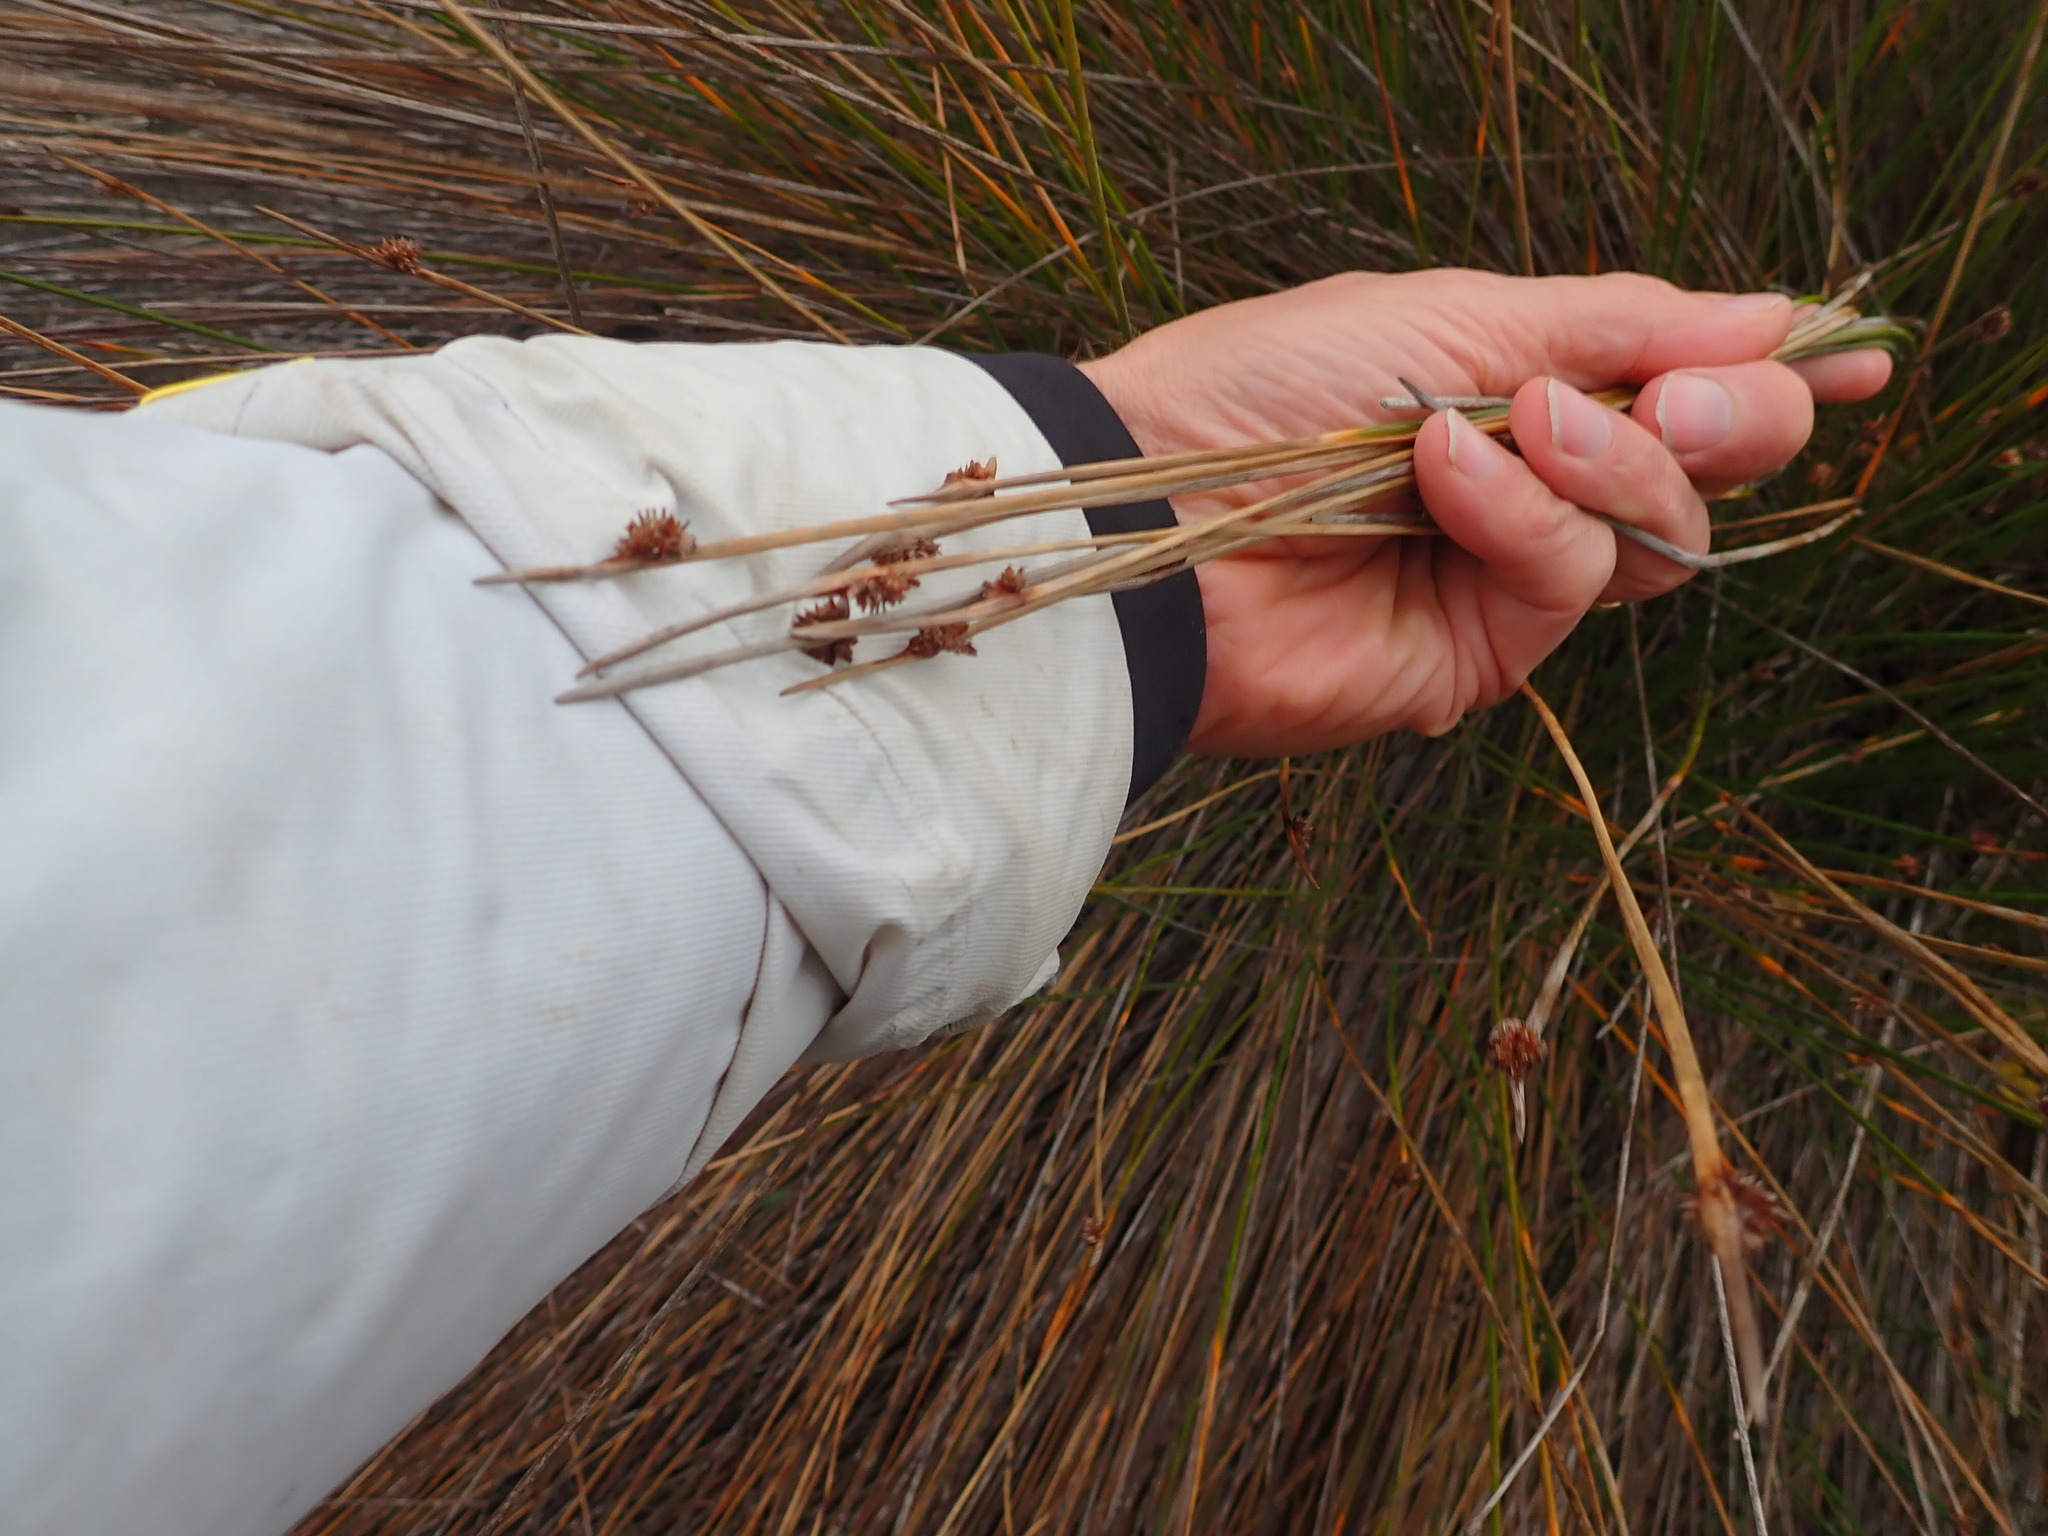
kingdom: Plantae
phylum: Tracheophyta
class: Liliopsida
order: Poales
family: Cyperaceae
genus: Ficinia
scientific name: Ficinia nodosa
